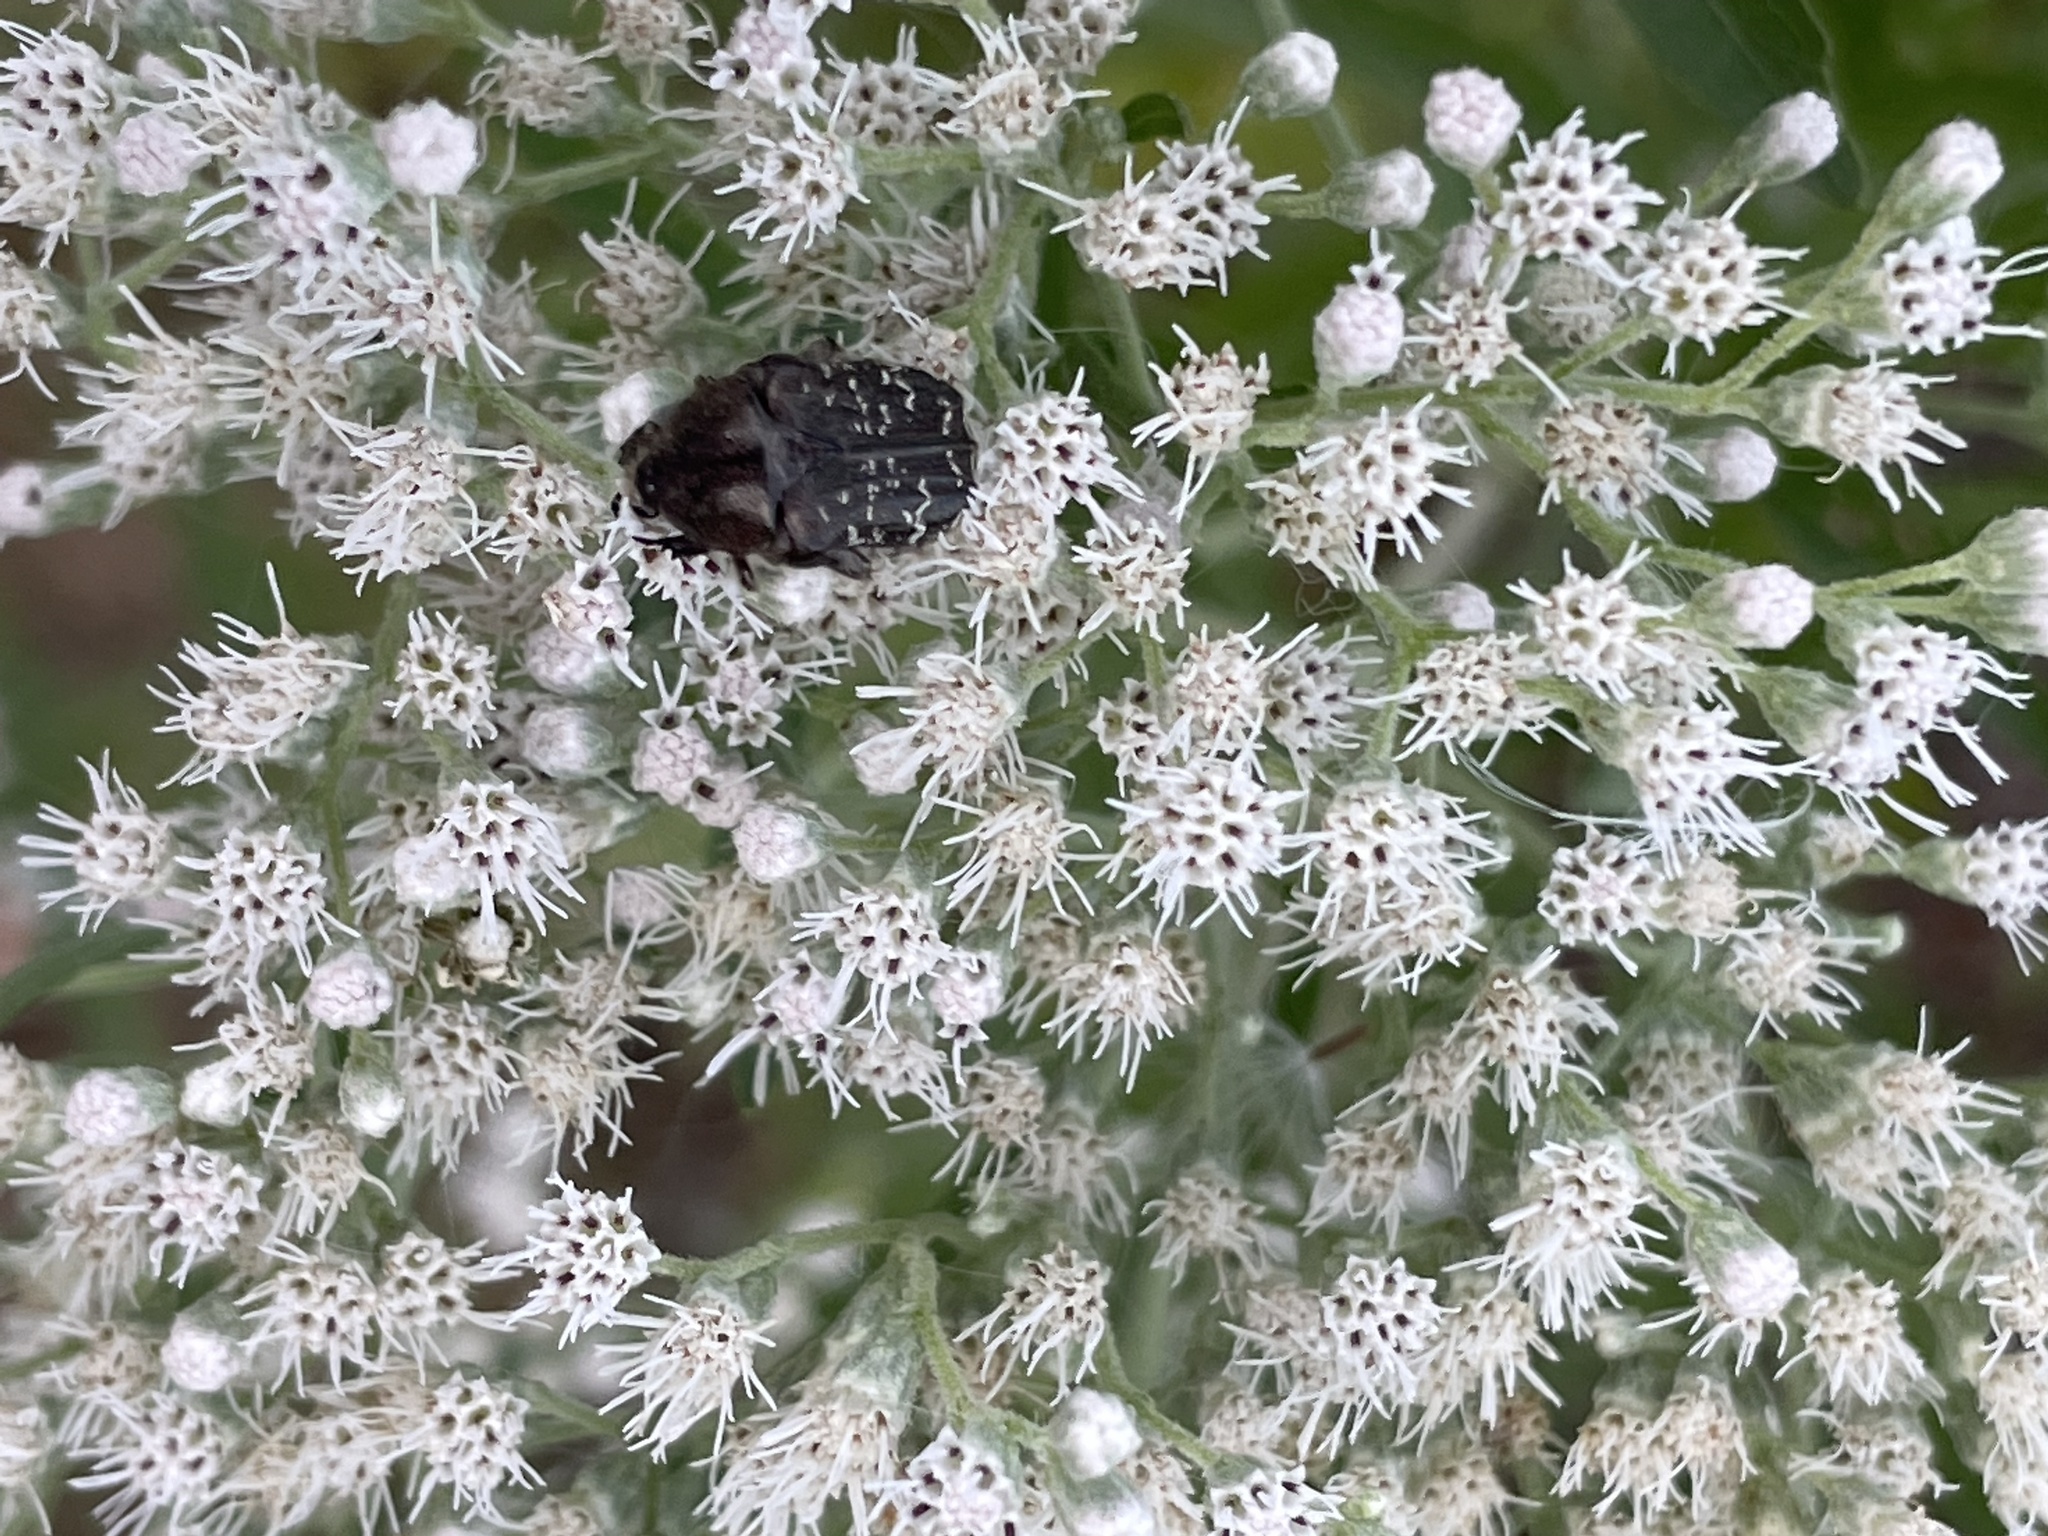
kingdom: Animalia
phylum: Arthropoda
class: Insecta
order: Coleoptera
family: Scarabaeidae
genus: Euphoria
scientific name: Euphoria sepulcralis
